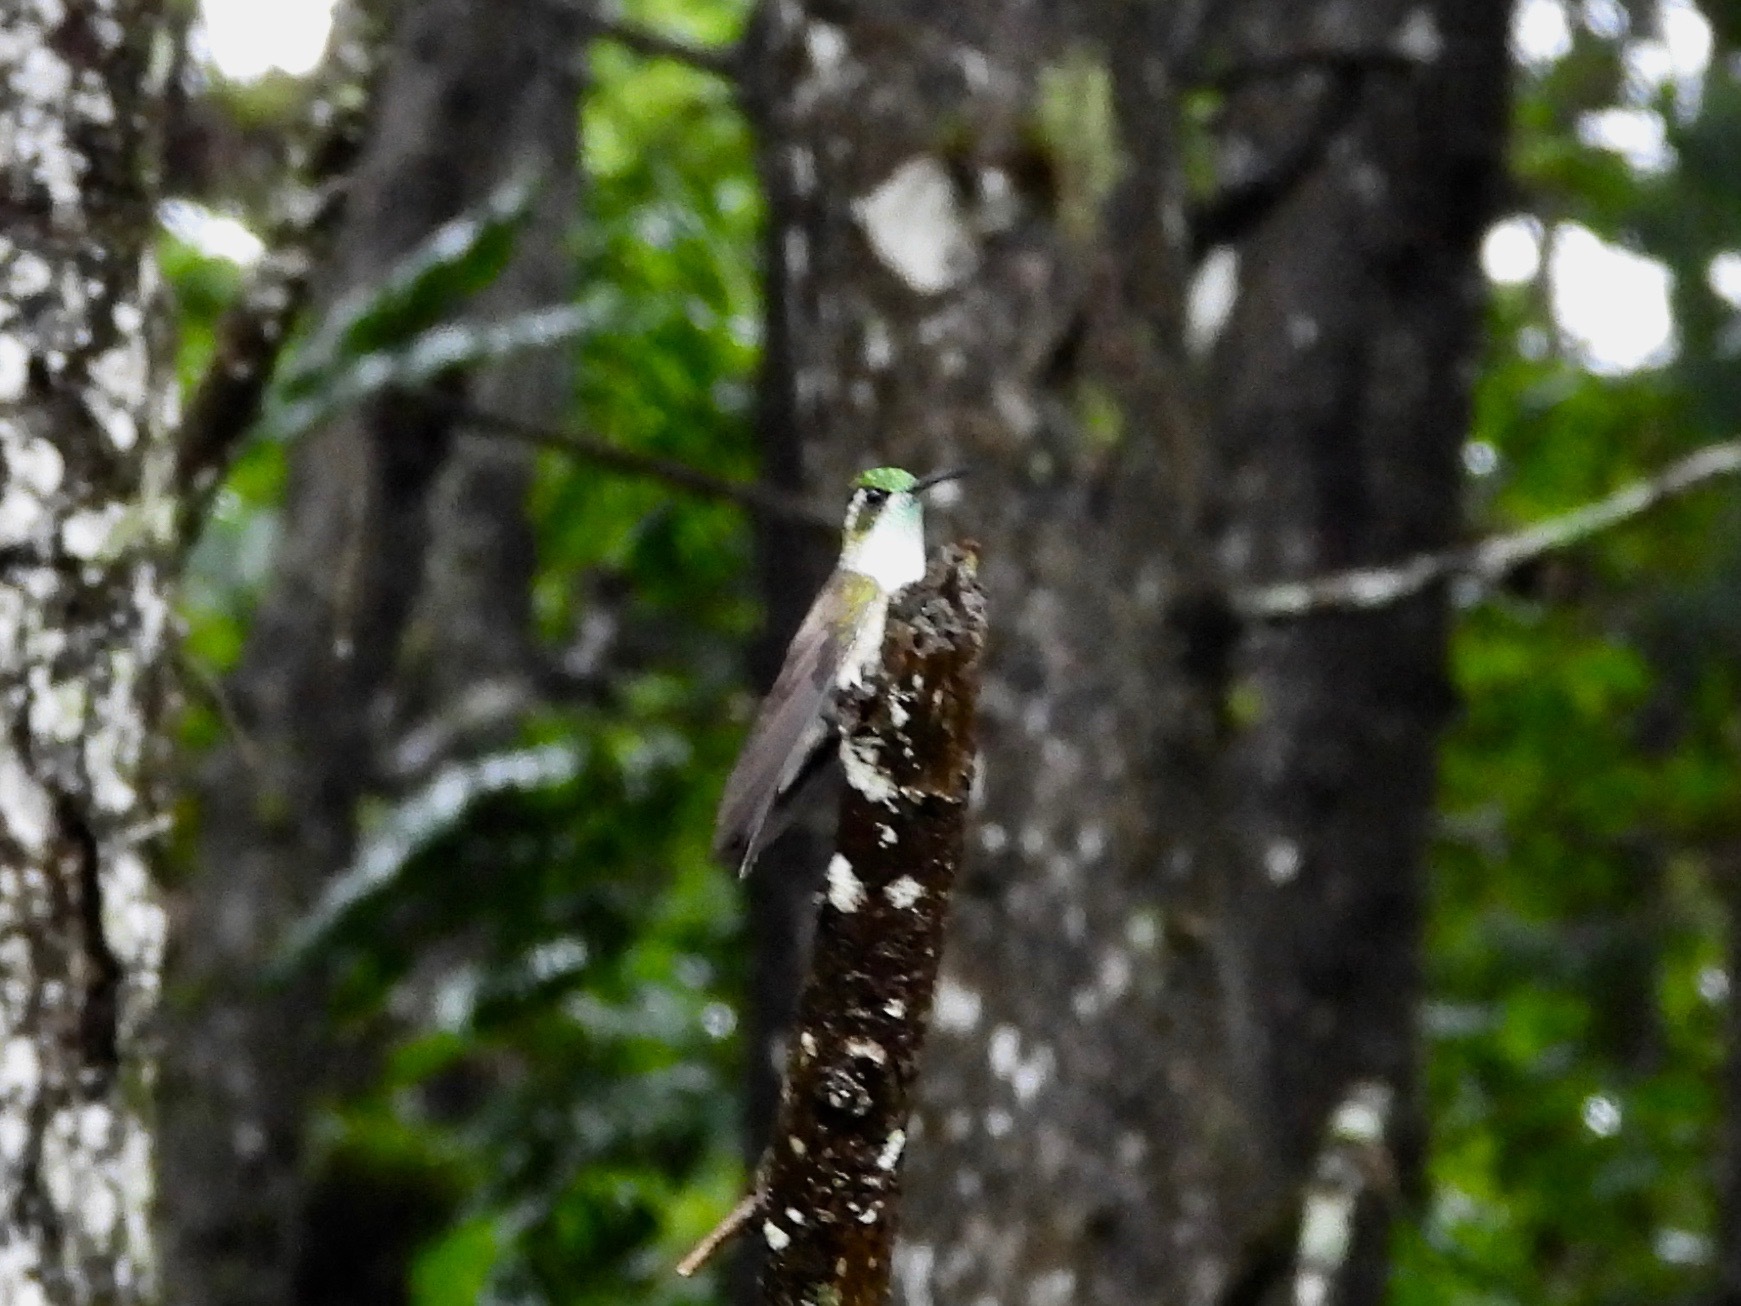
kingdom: Animalia
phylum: Chordata
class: Aves
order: Apodiformes
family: Trochilidae
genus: Lampornis
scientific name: Lampornis viridipallens
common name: Green-throated mountain-gem
